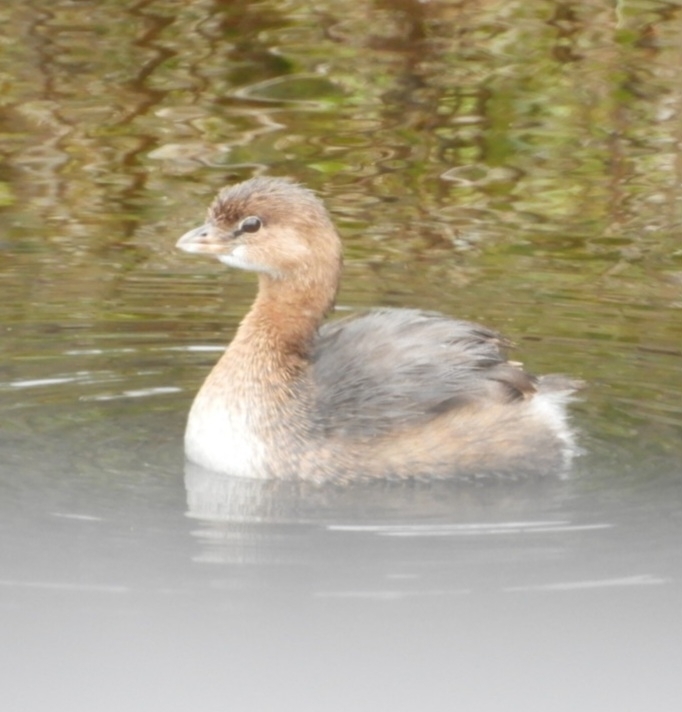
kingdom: Animalia
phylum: Chordata
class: Aves
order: Podicipediformes
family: Podicipedidae
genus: Podilymbus
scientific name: Podilymbus podiceps
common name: Pied-billed grebe
